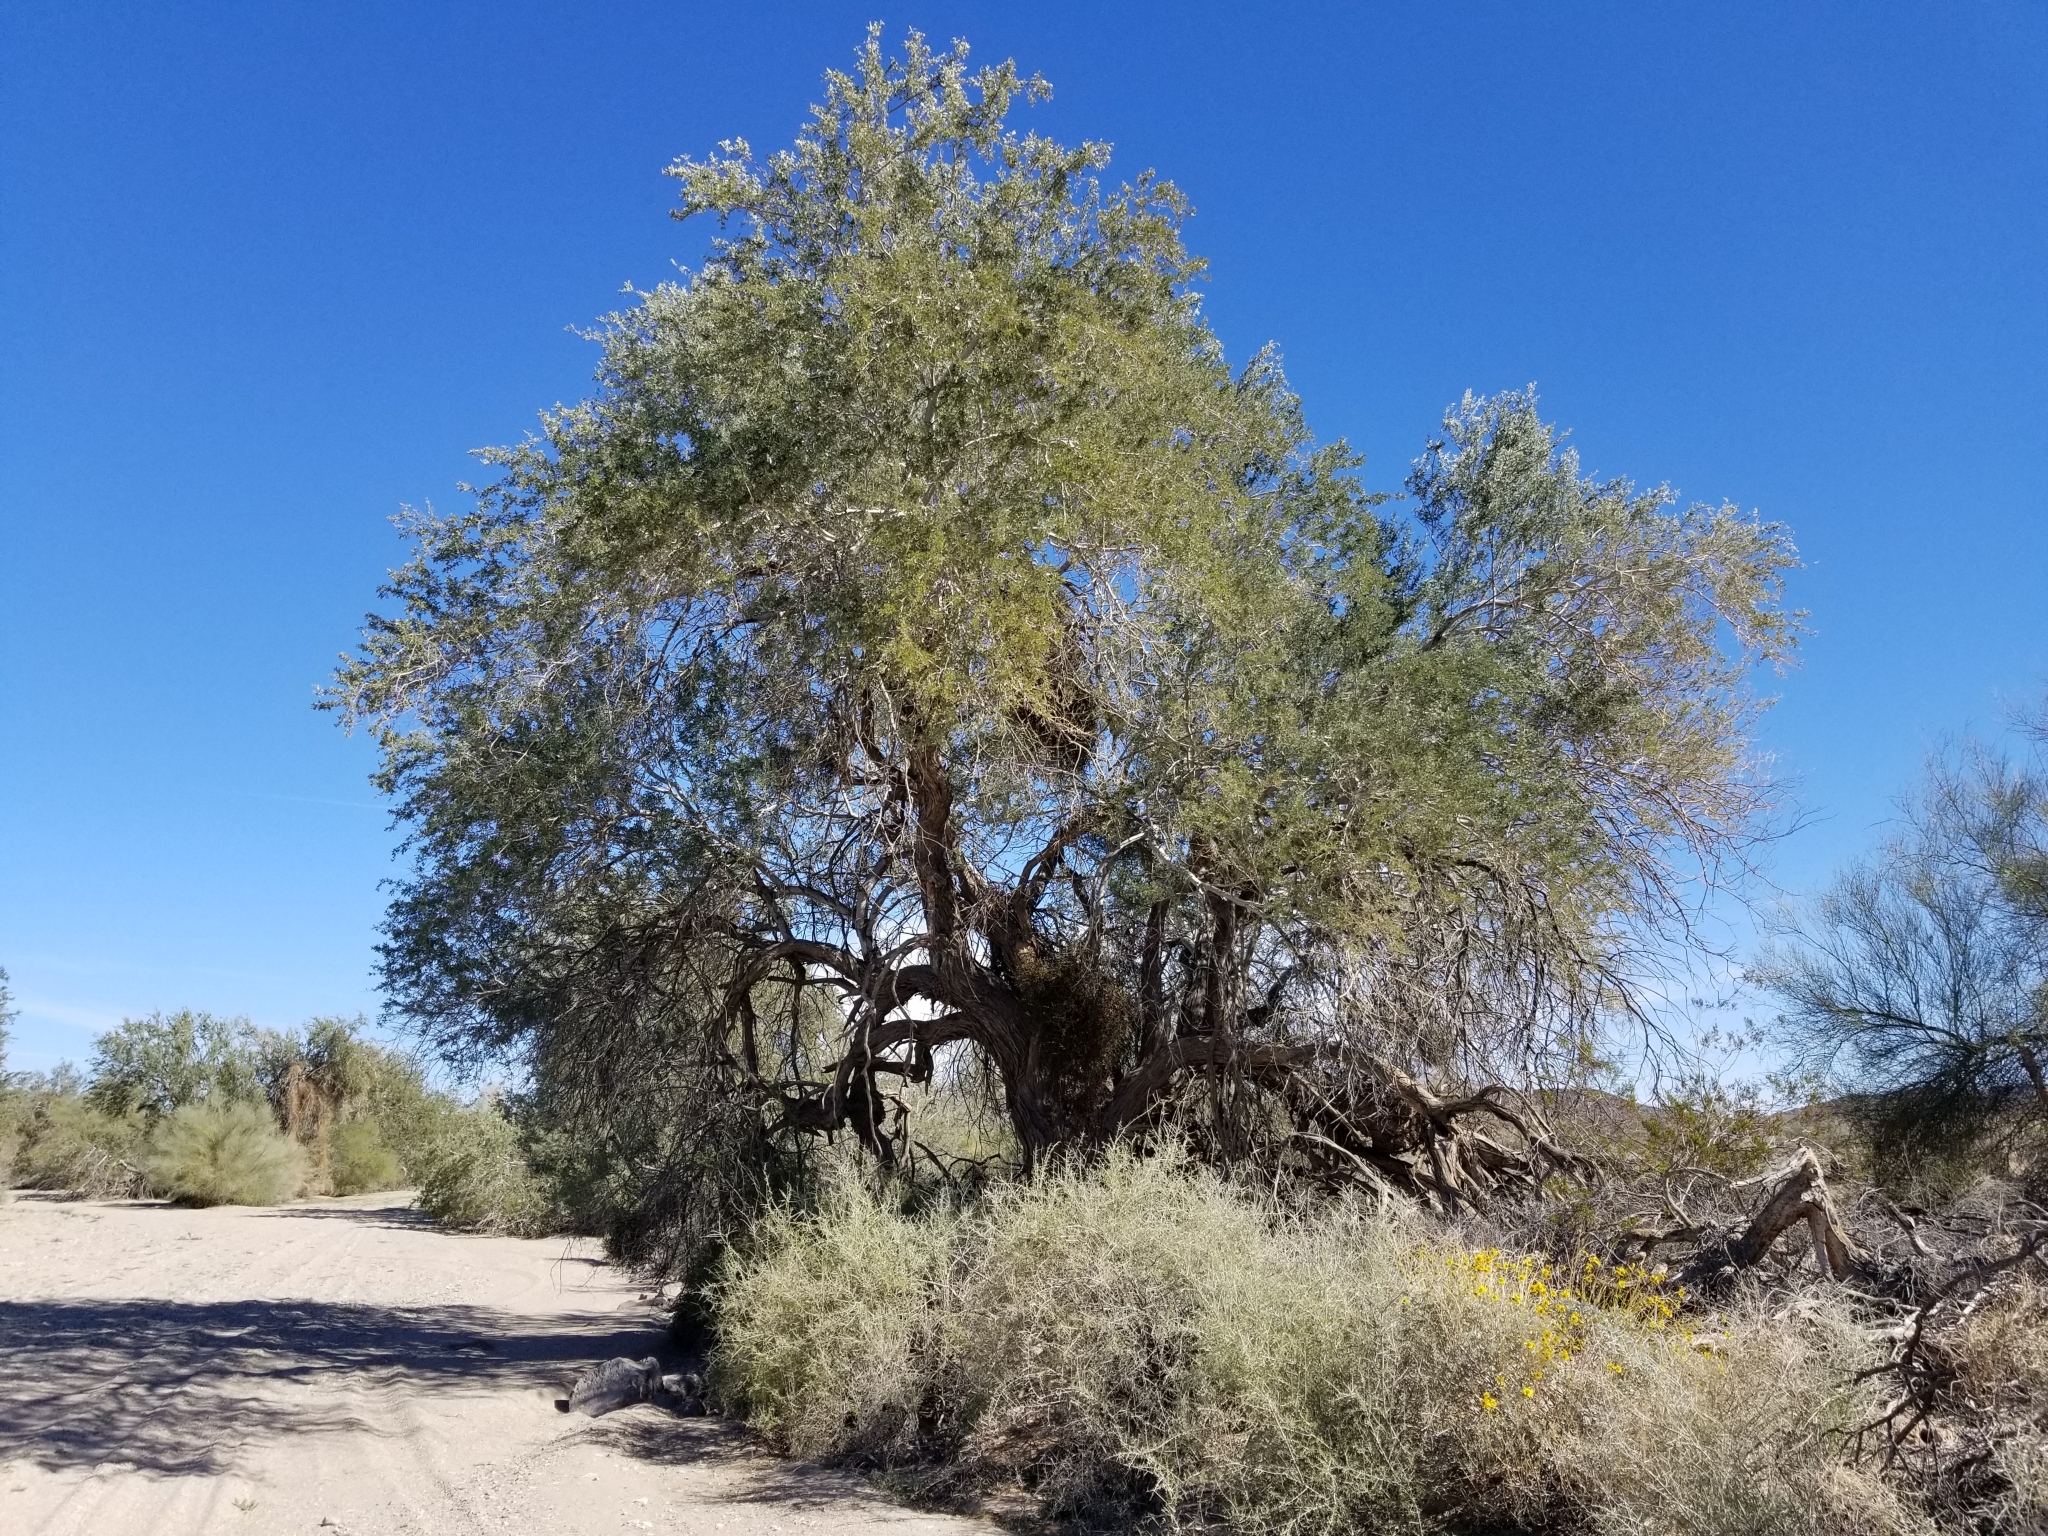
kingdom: Plantae
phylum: Tracheophyta
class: Magnoliopsida
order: Fabales
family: Fabaceae
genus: Olneya
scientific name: Olneya tesota
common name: Desert ironwood
